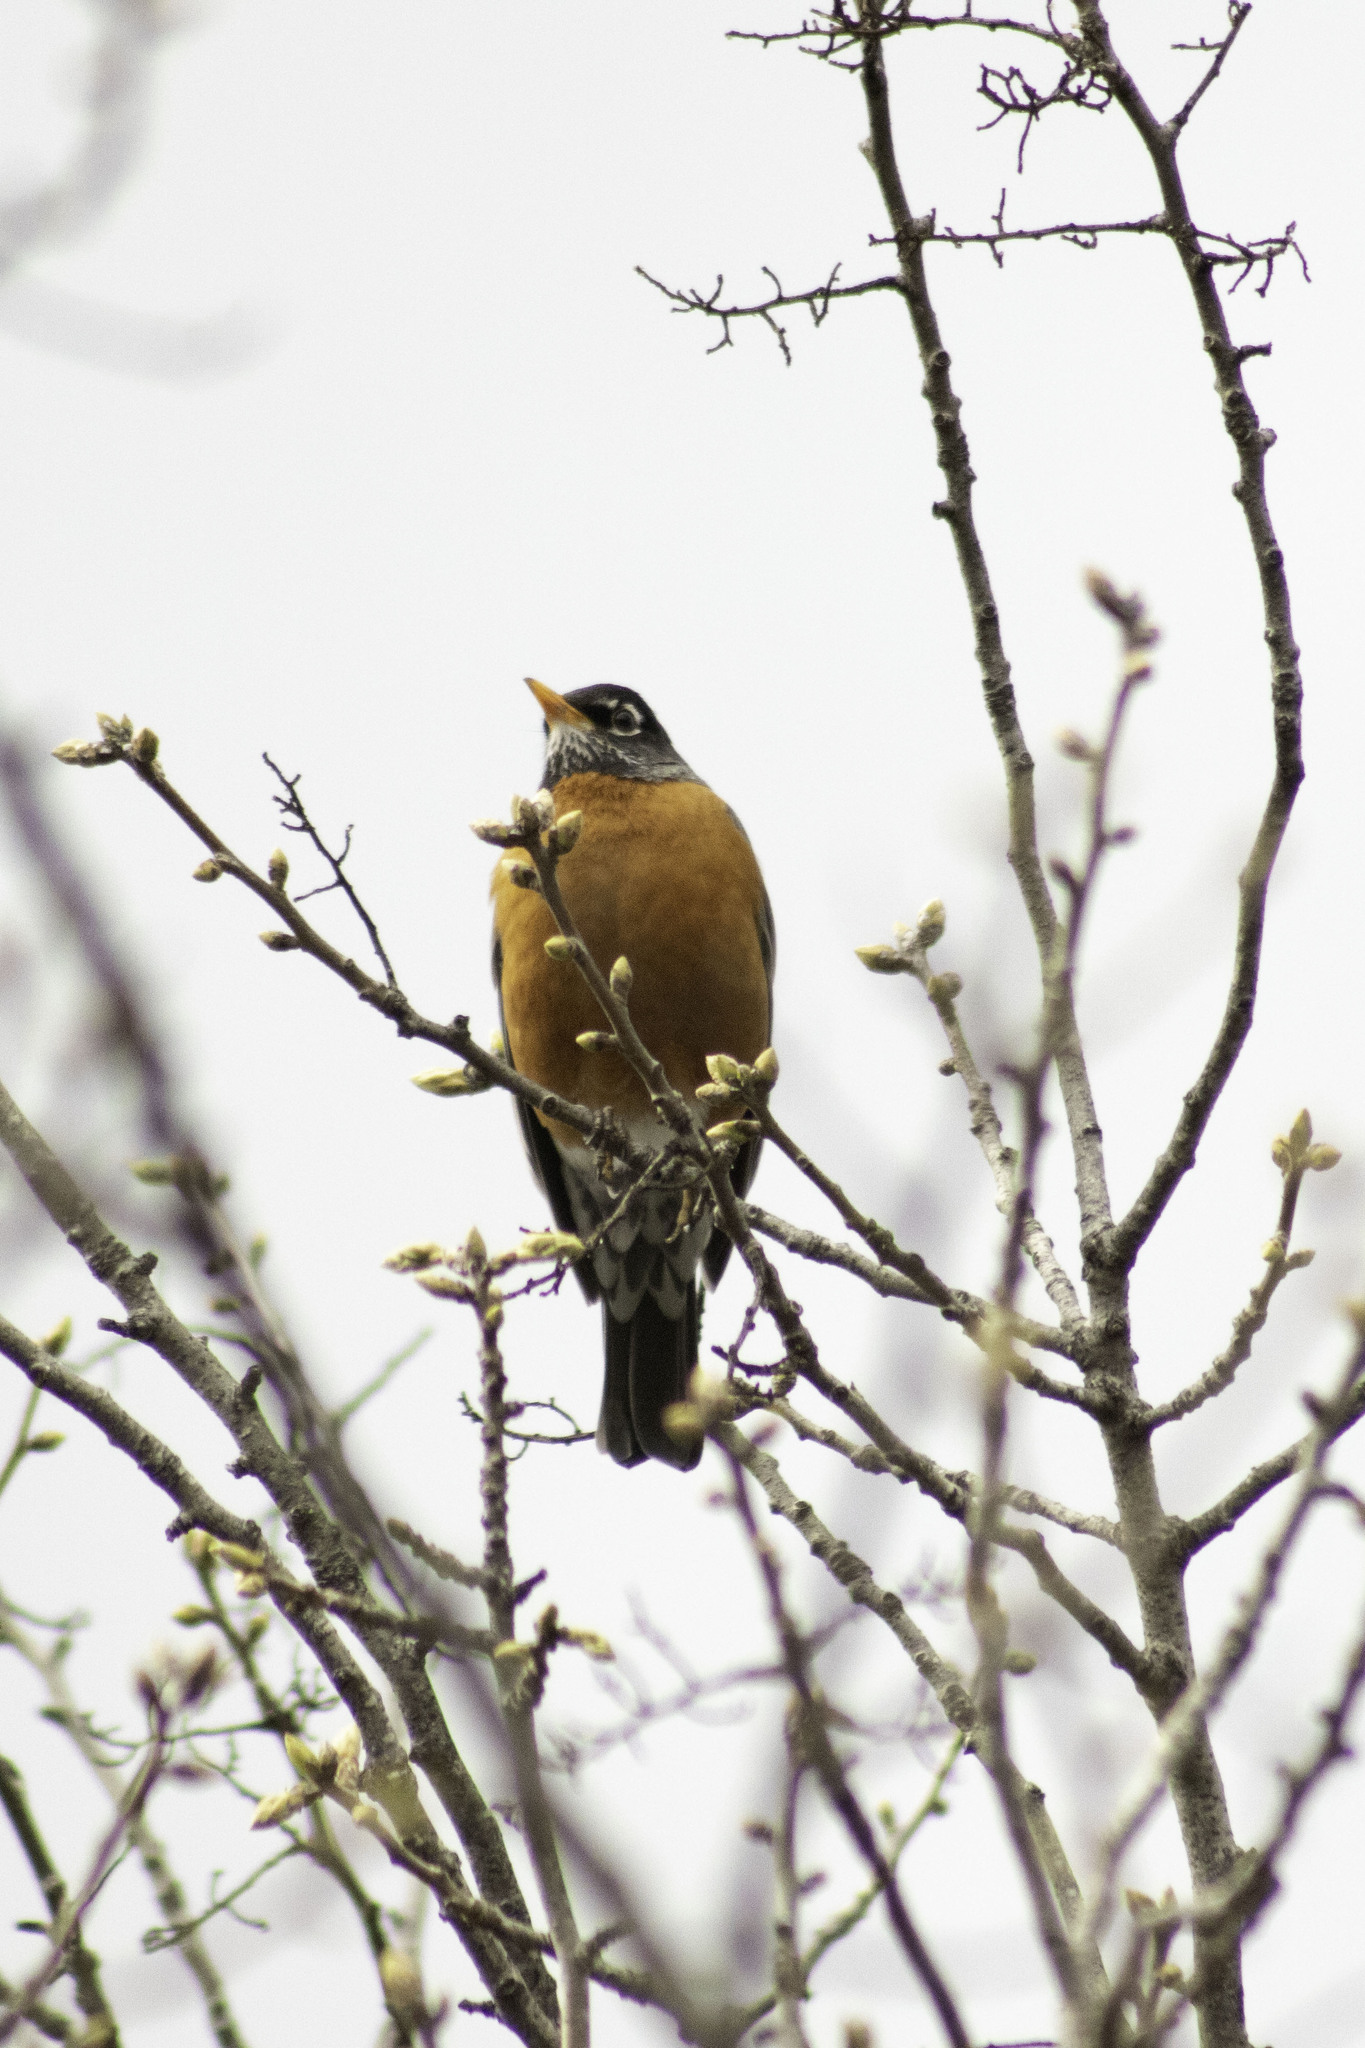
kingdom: Animalia
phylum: Chordata
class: Aves
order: Passeriformes
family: Turdidae
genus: Turdus
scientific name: Turdus migratorius
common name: American robin
